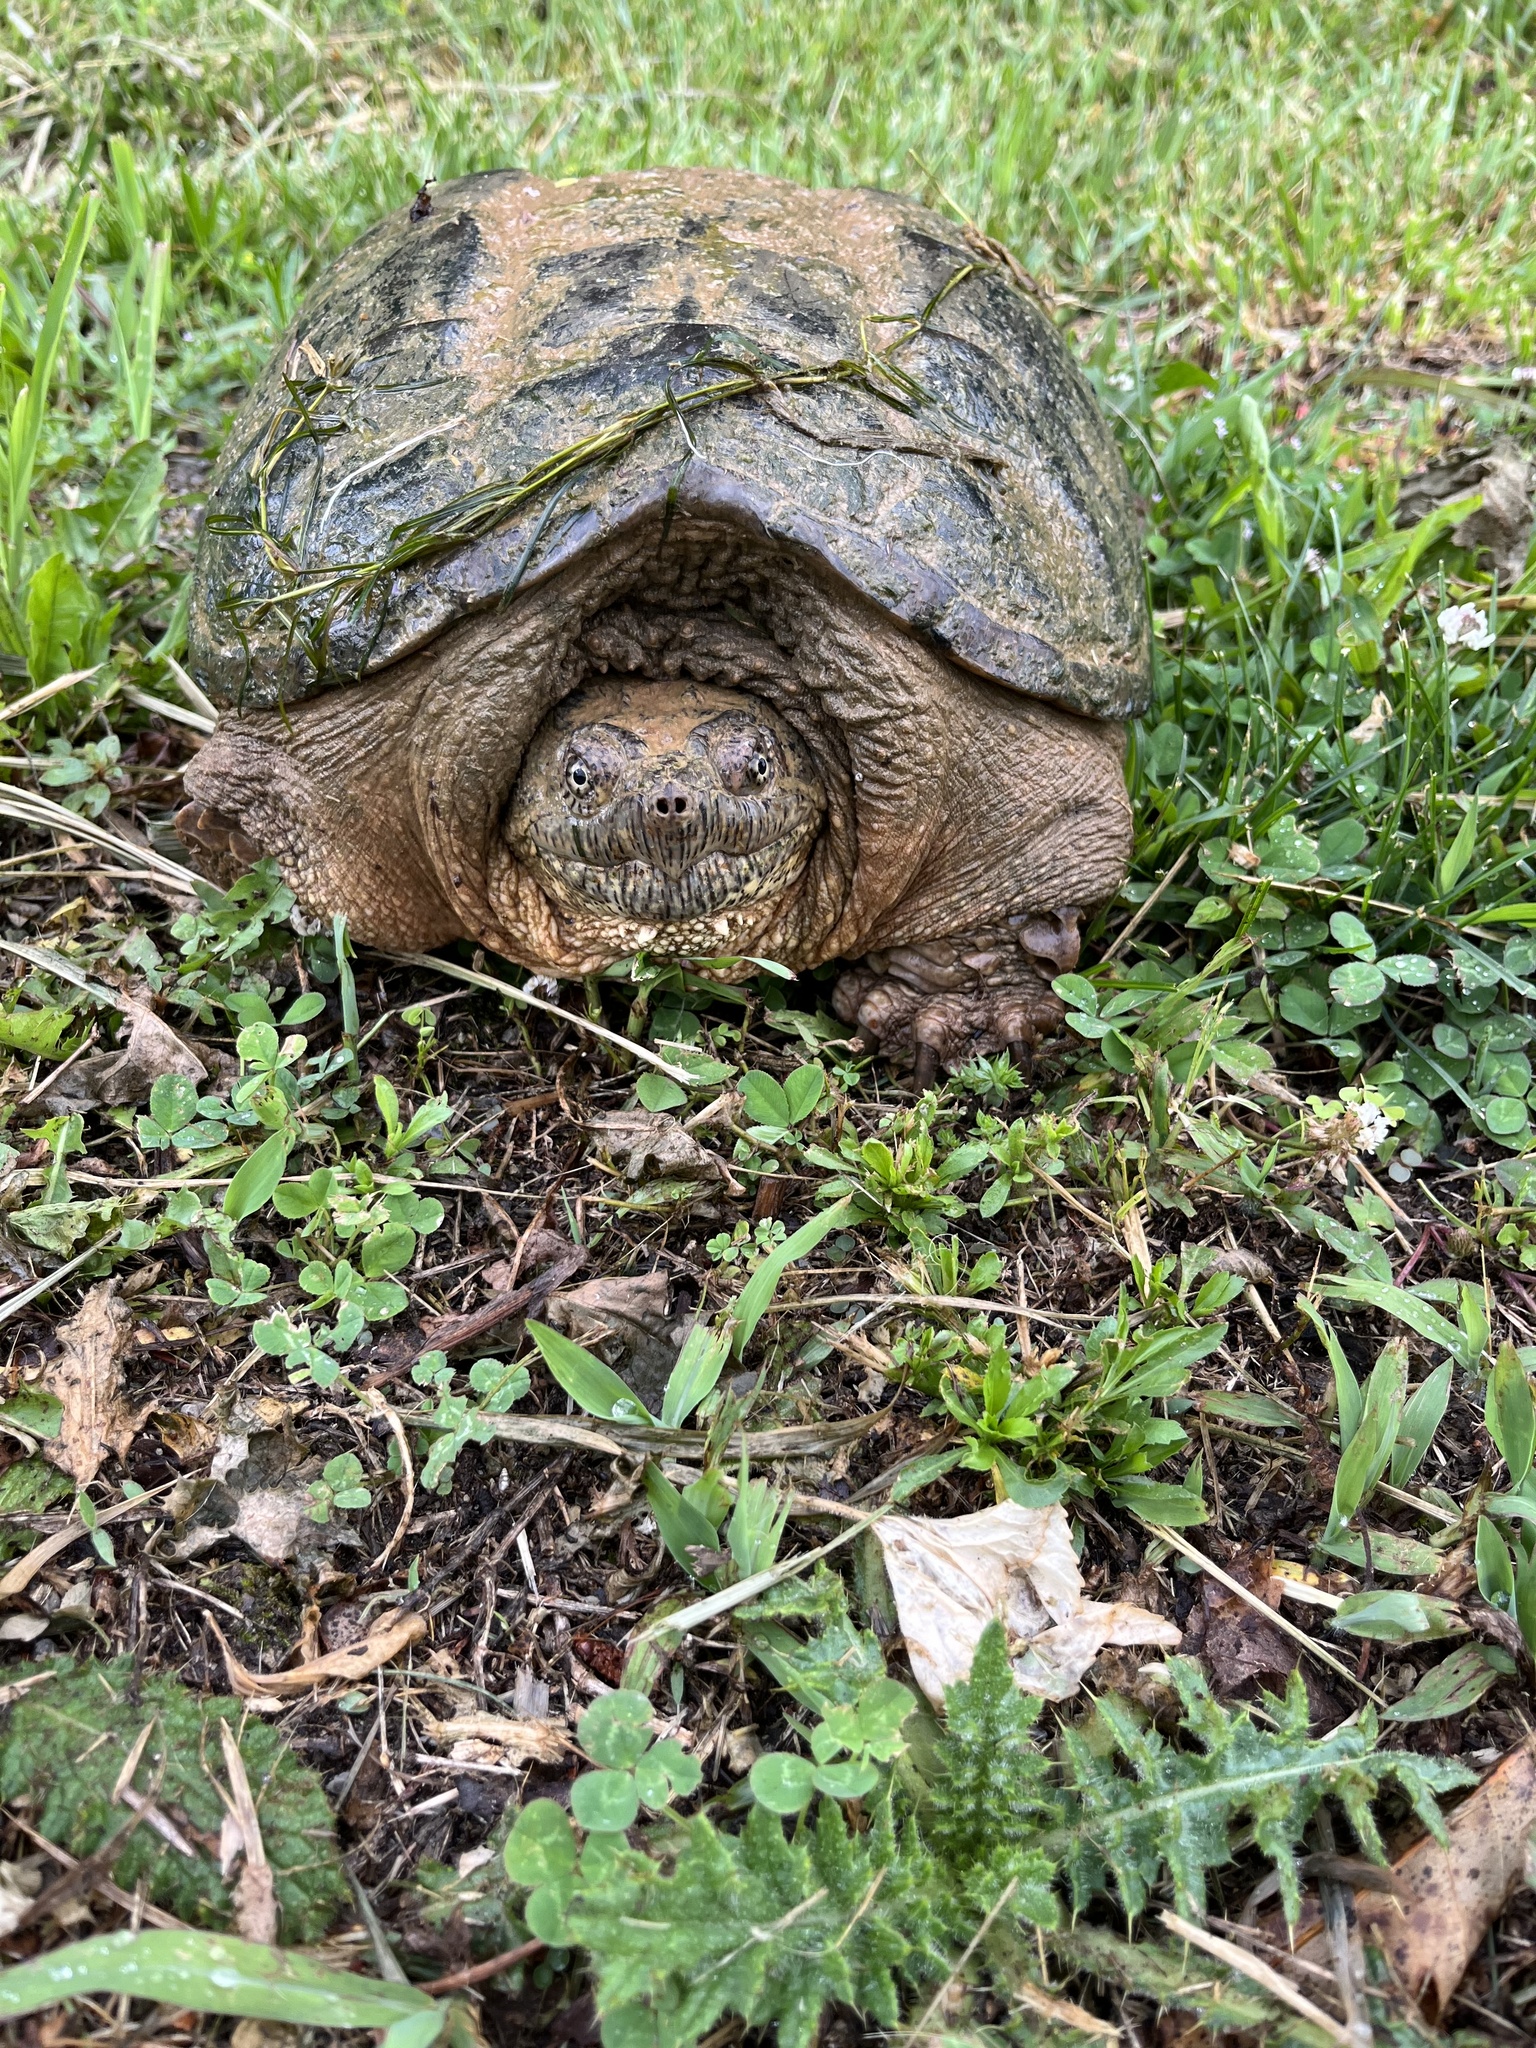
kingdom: Animalia
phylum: Chordata
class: Testudines
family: Chelydridae
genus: Chelydra
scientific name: Chelydra serpentina
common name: Common snapping turtle
